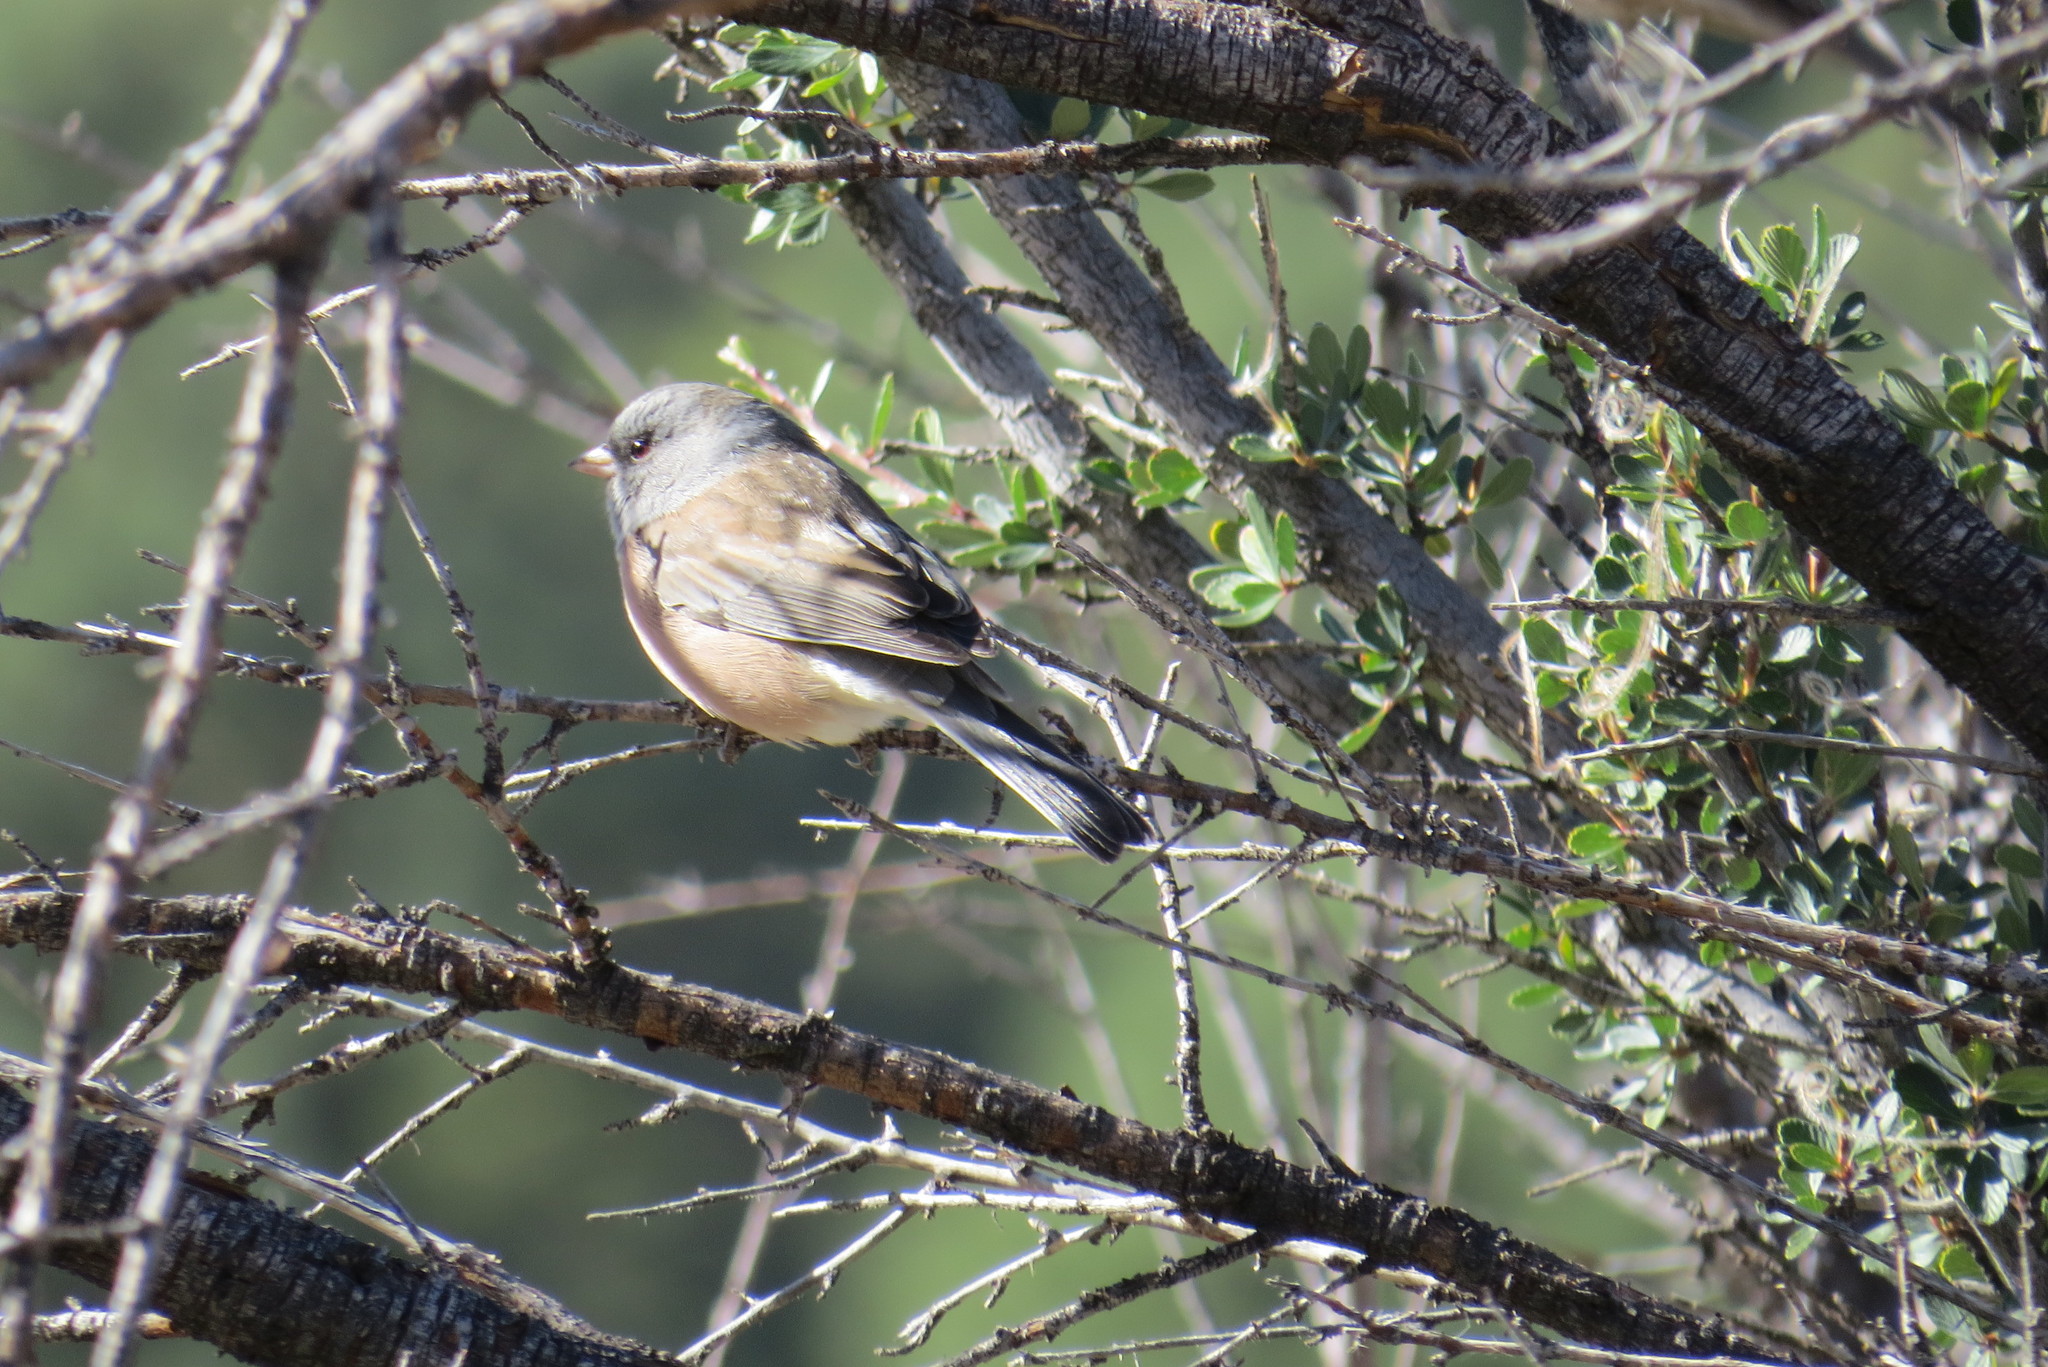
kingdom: Animalia
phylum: Chordata
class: Aves
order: Passeriformes
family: Passerellidae
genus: Junco
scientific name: Junco hyemalis
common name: Dark-eyed junco
